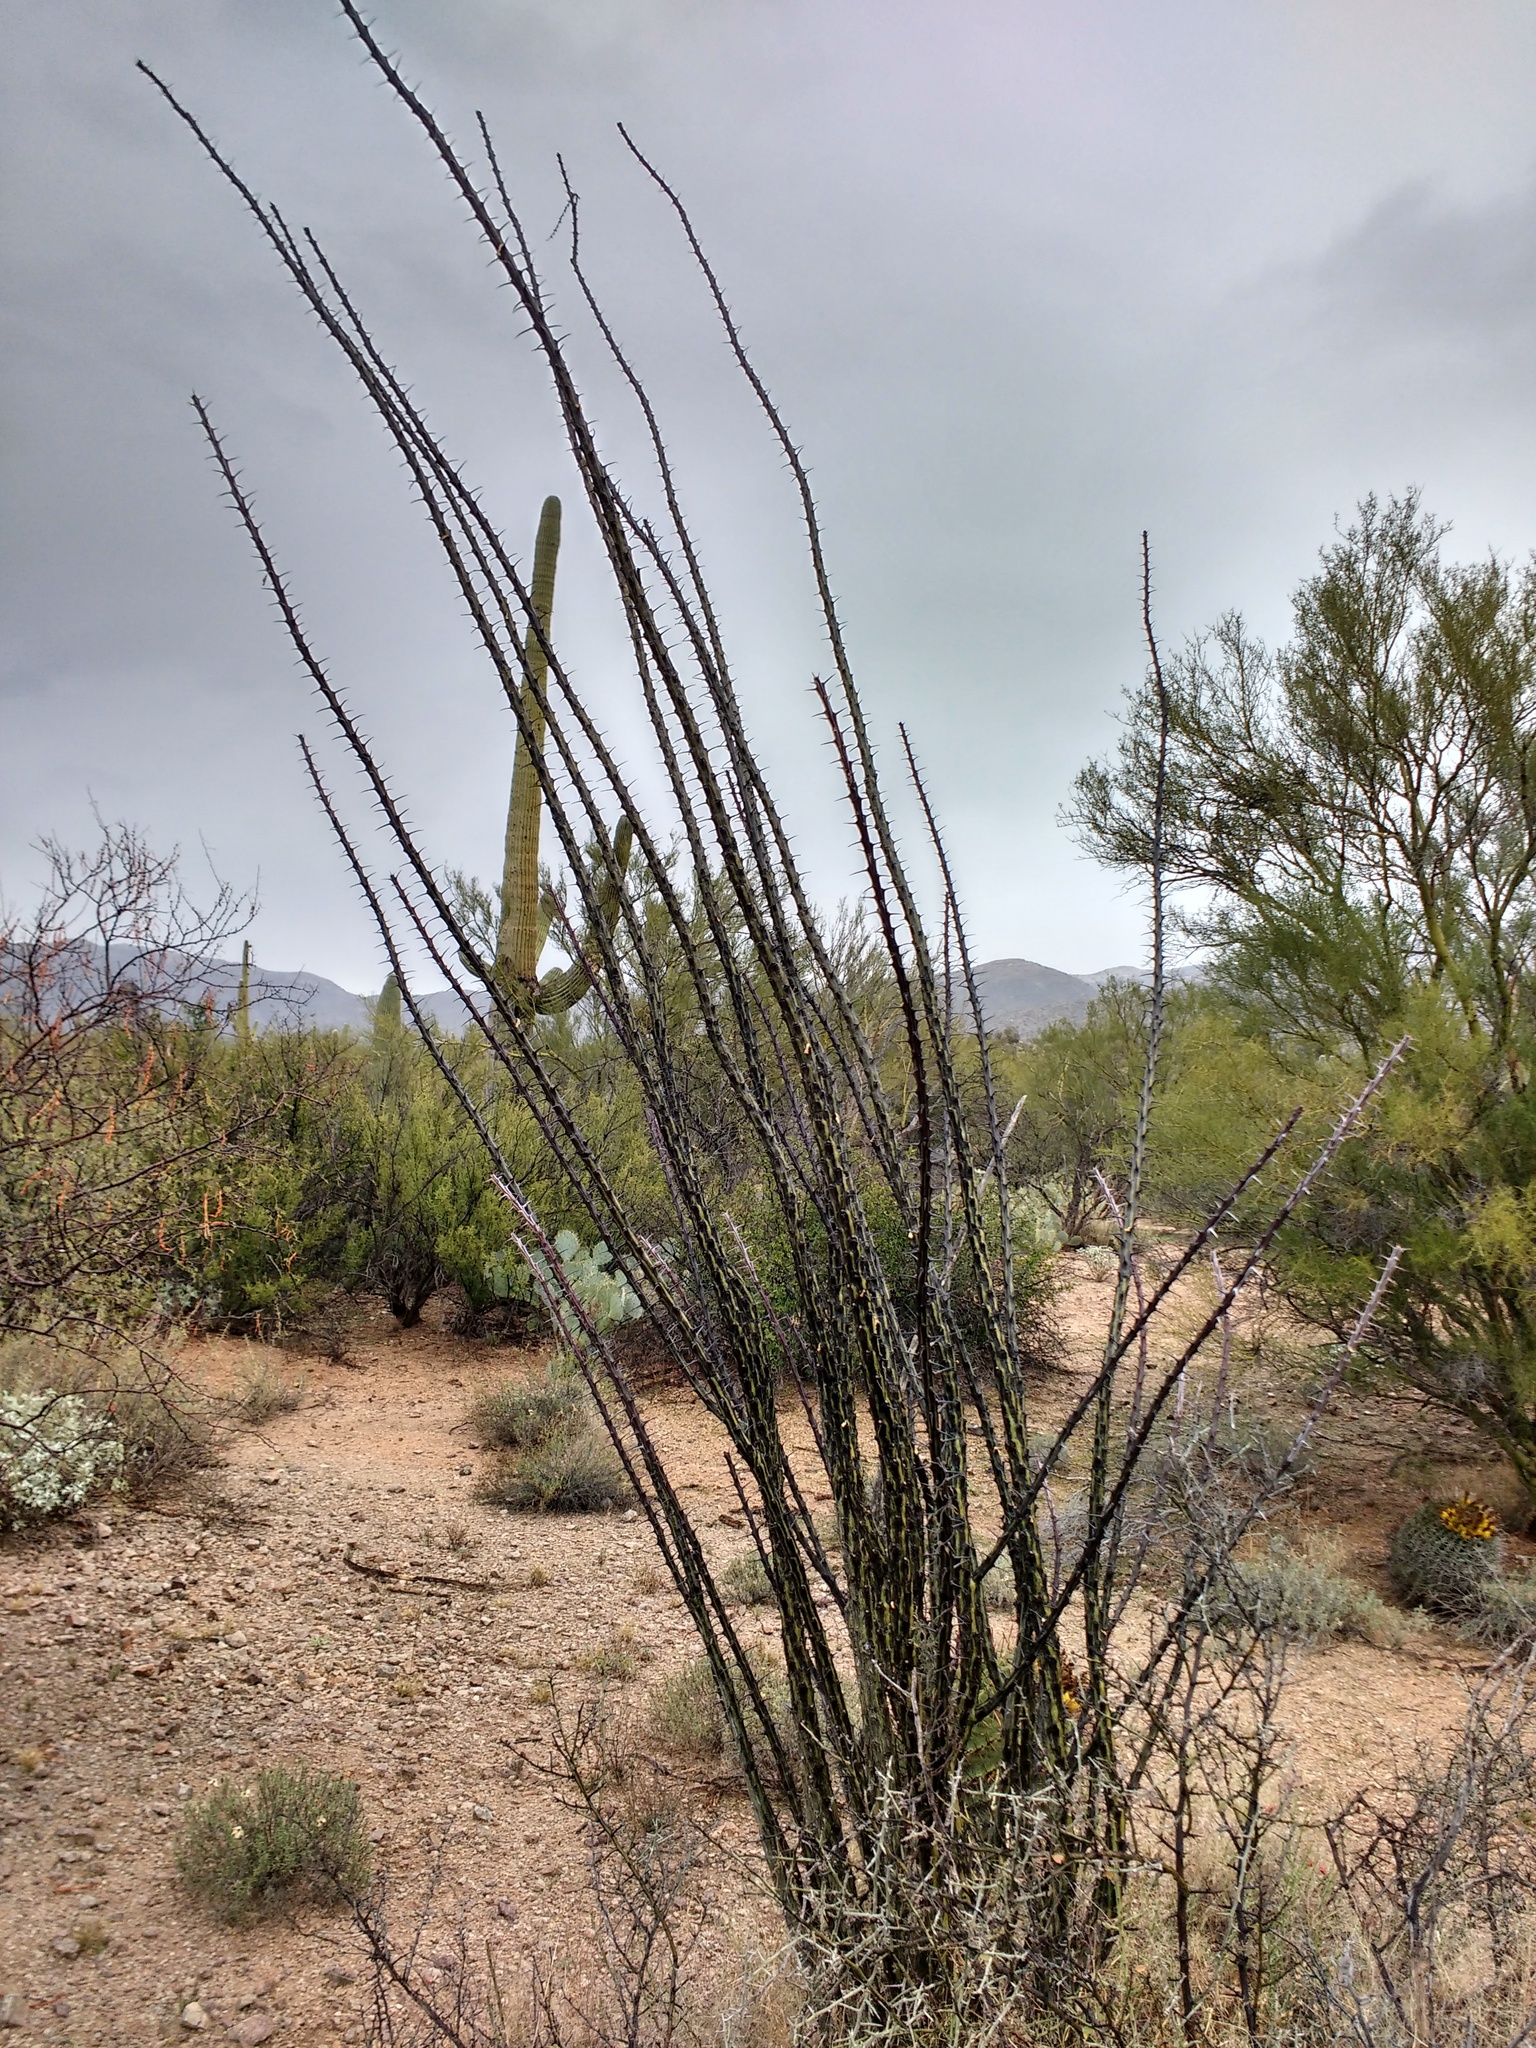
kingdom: Plantae
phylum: Tracheophyta
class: Magnoliopsida
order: Ericales
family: Fouquieriaceae
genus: Fouquieria
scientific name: Fouquieria splendens
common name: Vine-cactus
